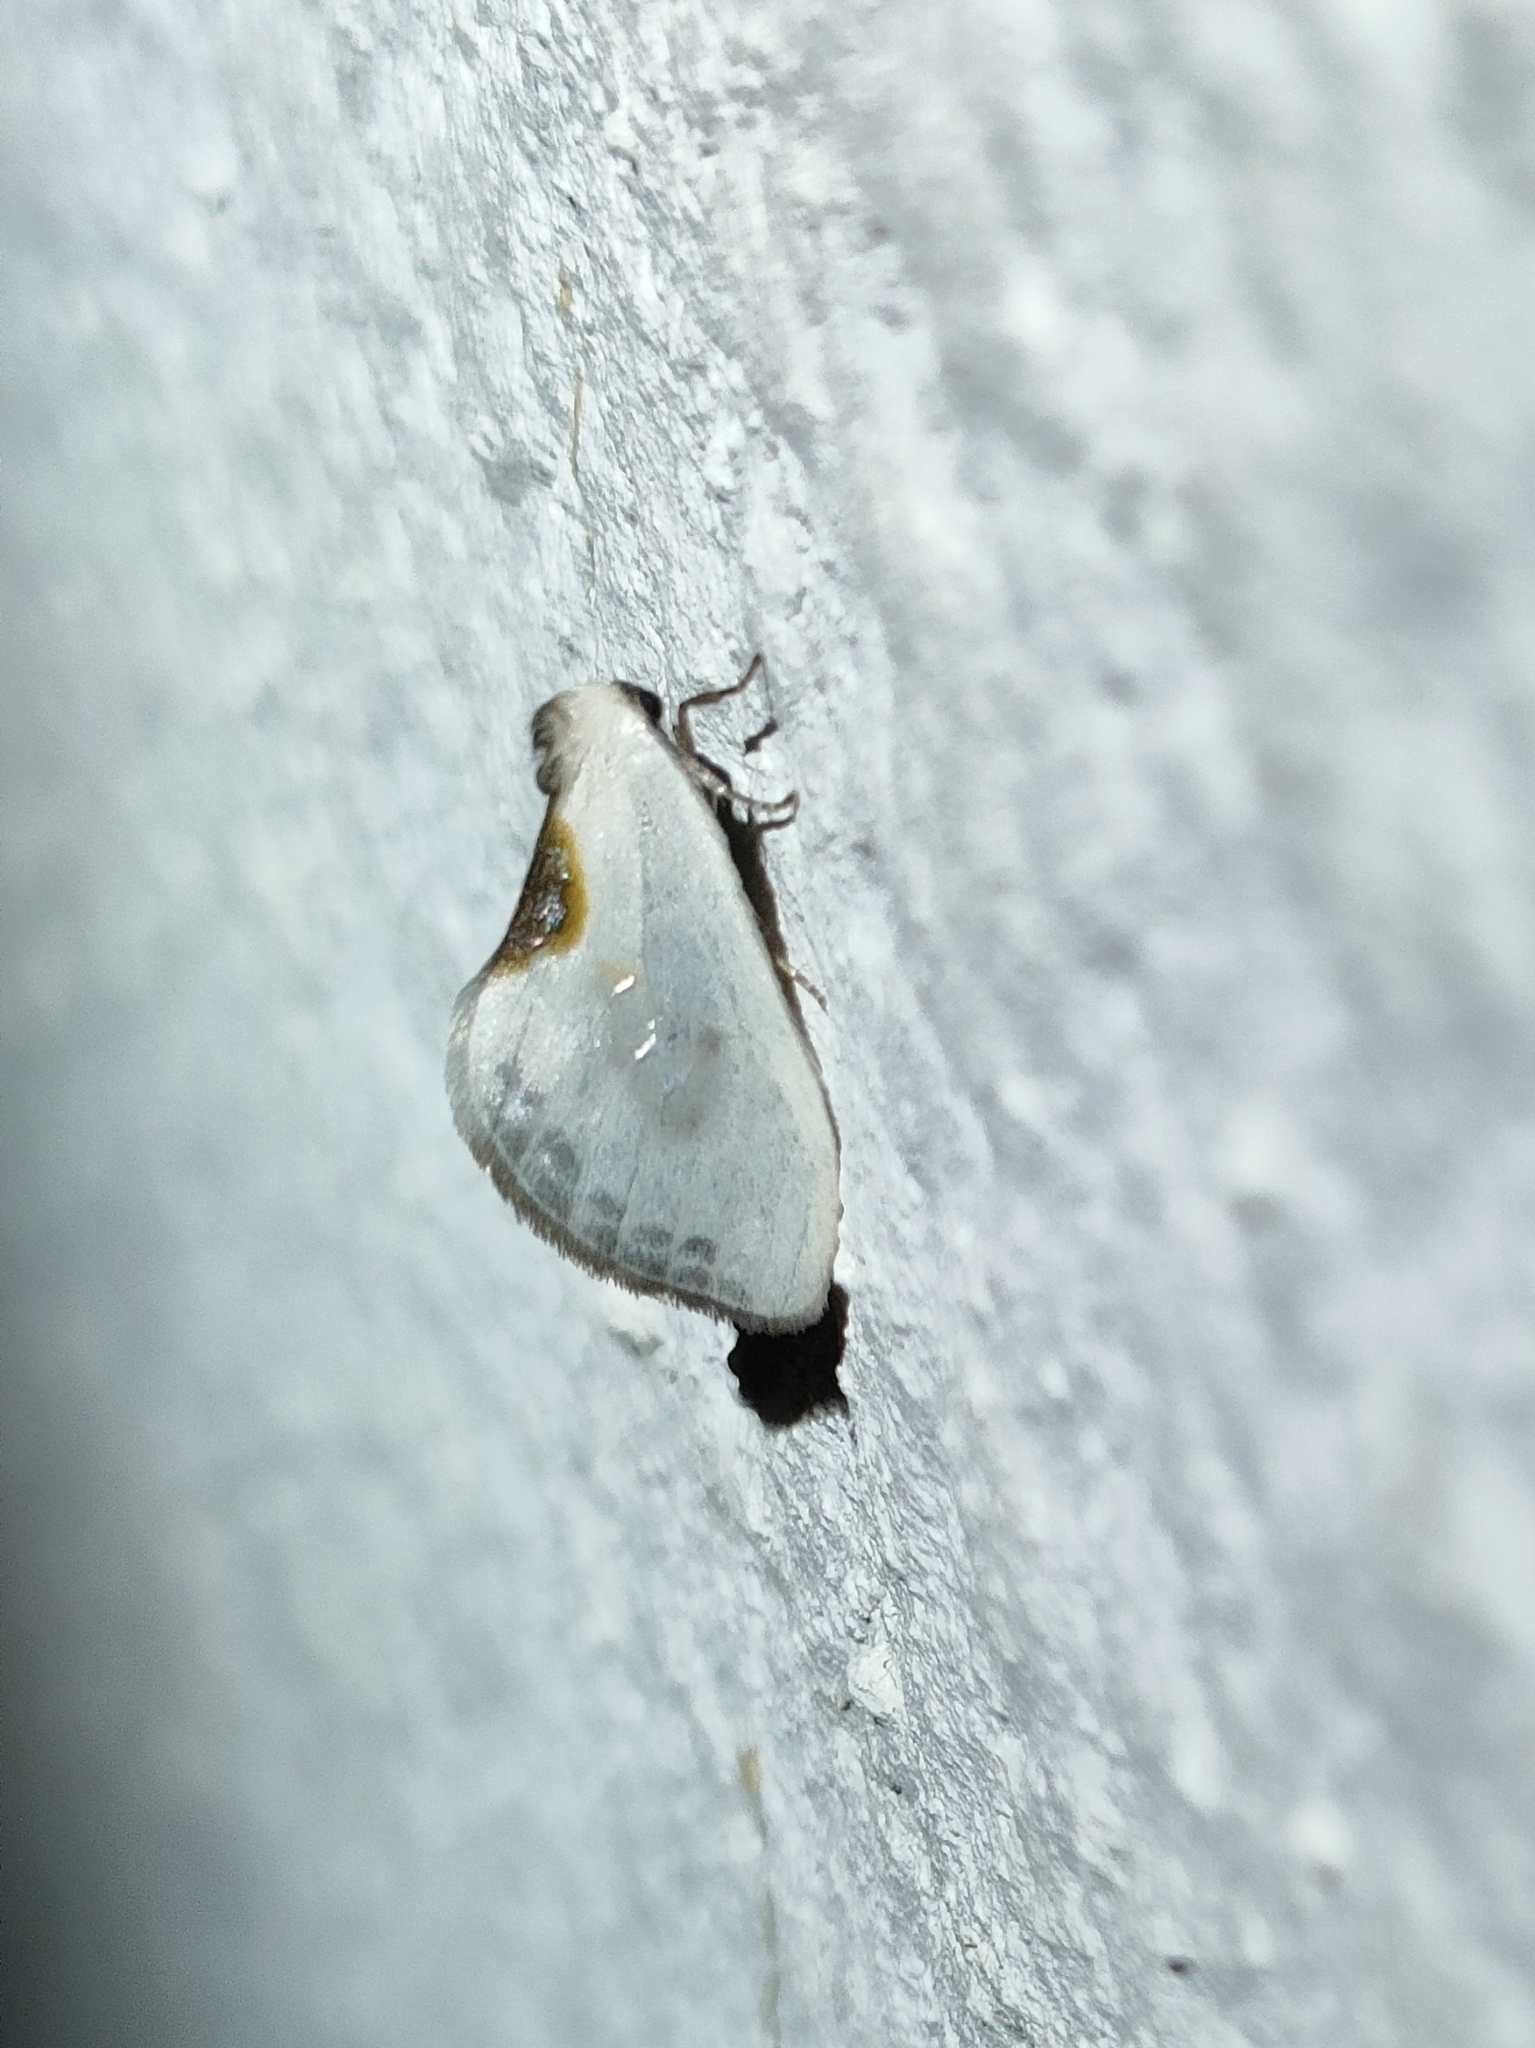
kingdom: Animalia
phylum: Arthropoda
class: Insecta
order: Lepidoptera
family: Drepanidae
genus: Cilix
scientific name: Cilix hispanica
